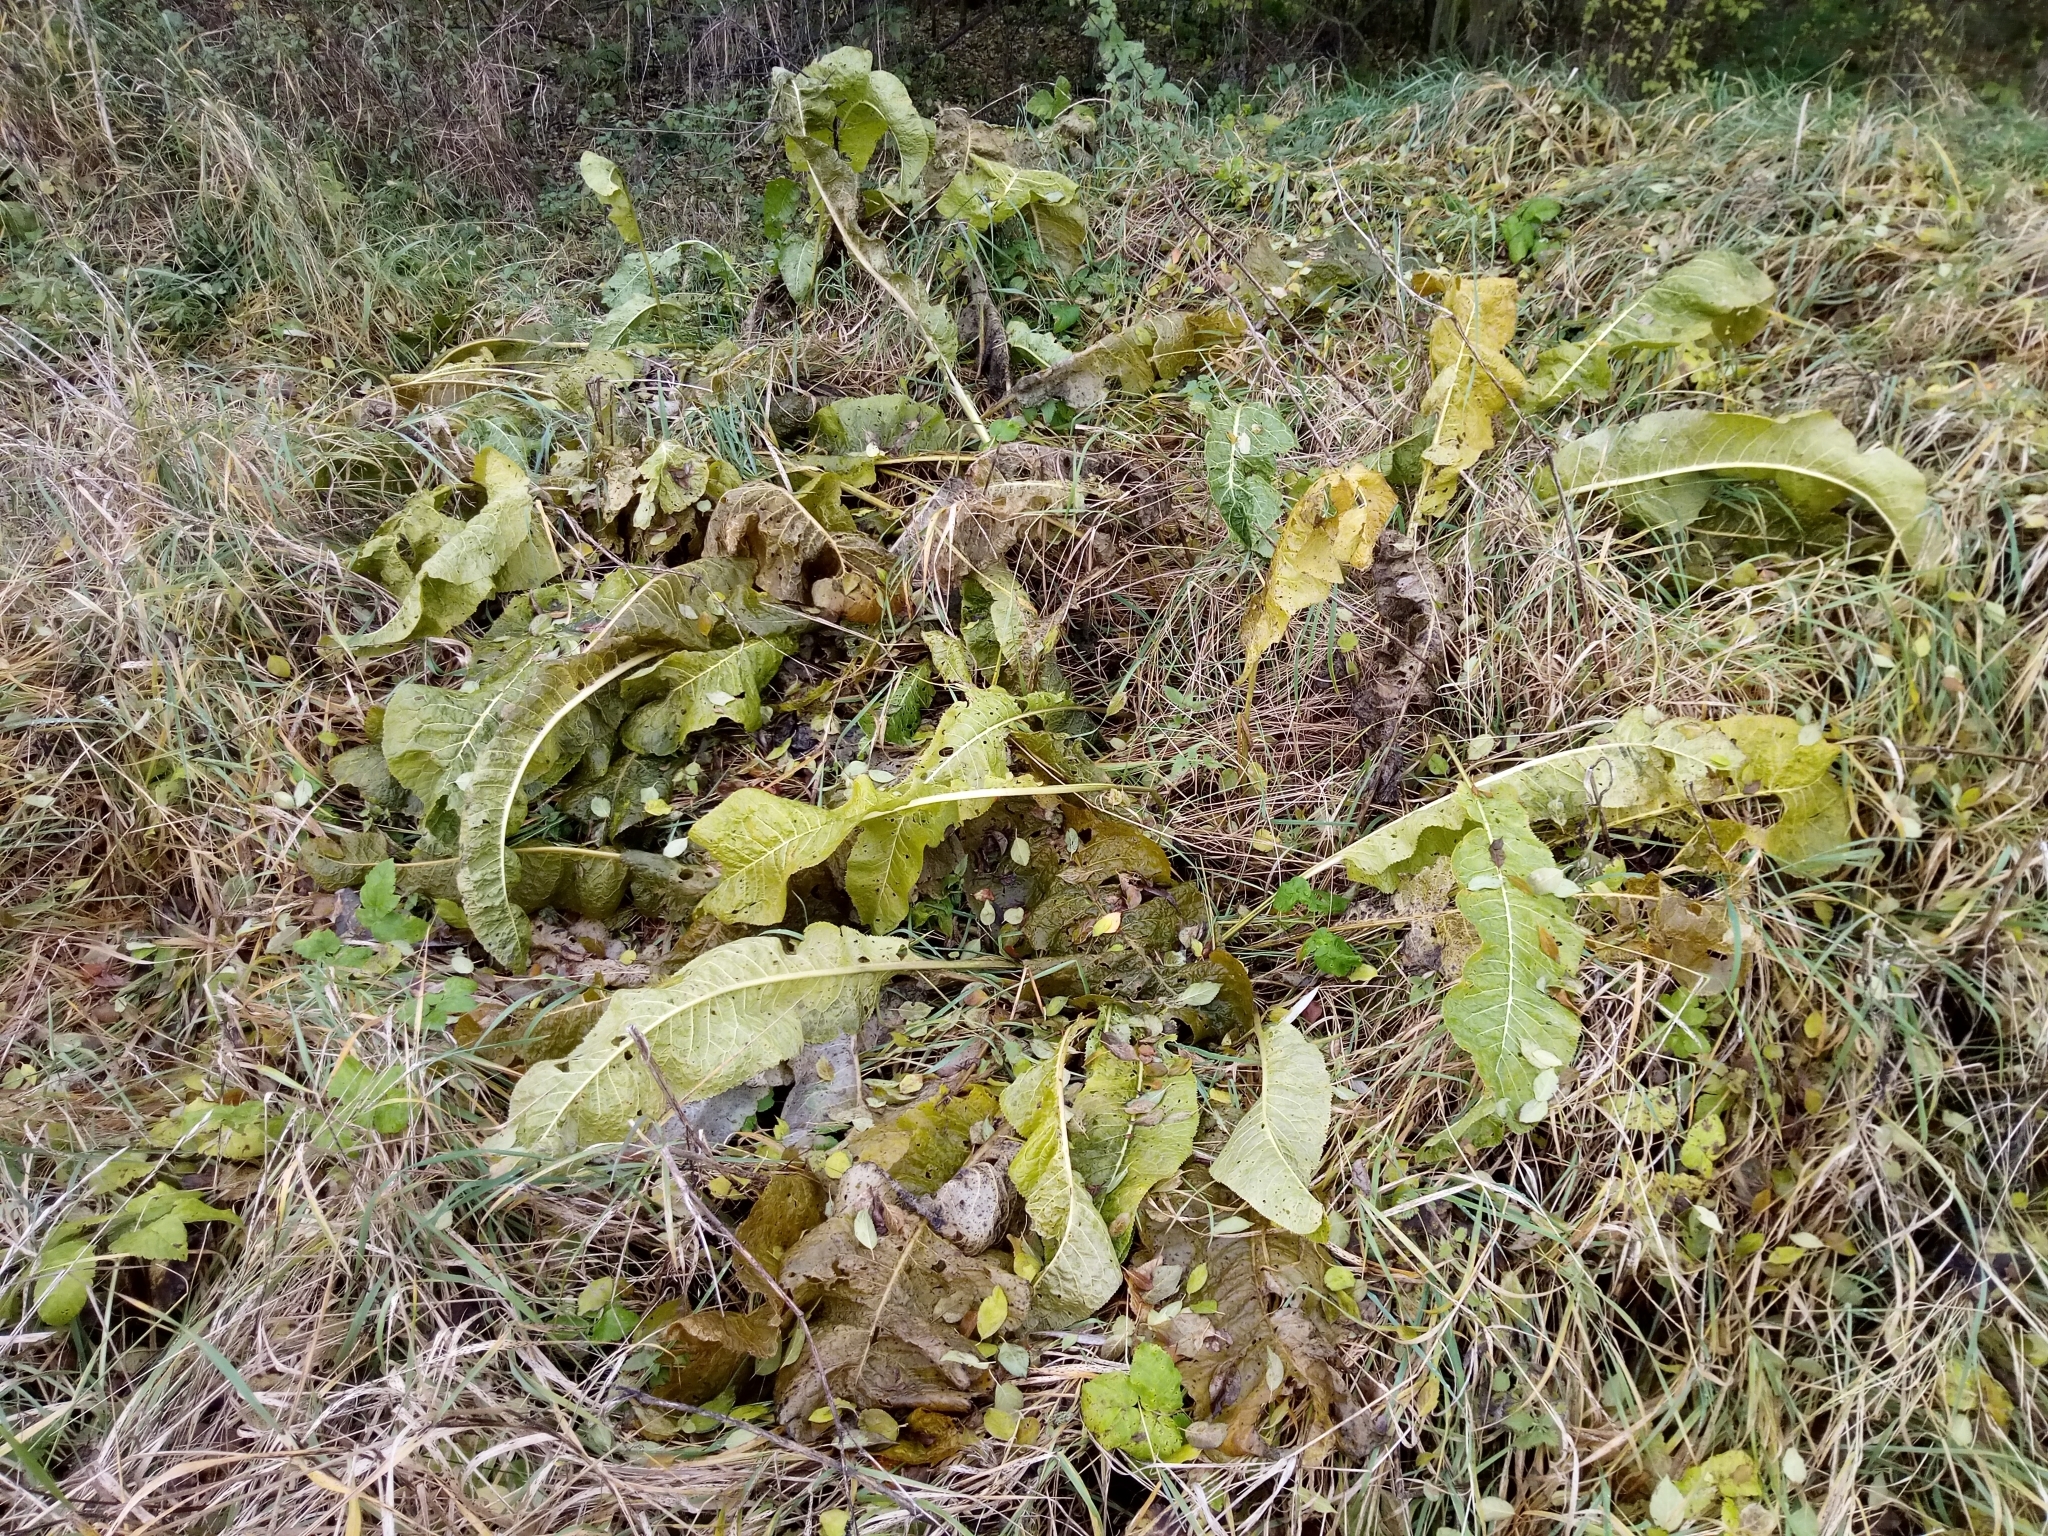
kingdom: Plantae
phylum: Tracheophyta
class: Magnoliopsida
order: Brassicales
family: Brassicaceae
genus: Armoracia
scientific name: Armoracia rusticana
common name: Horseradish
